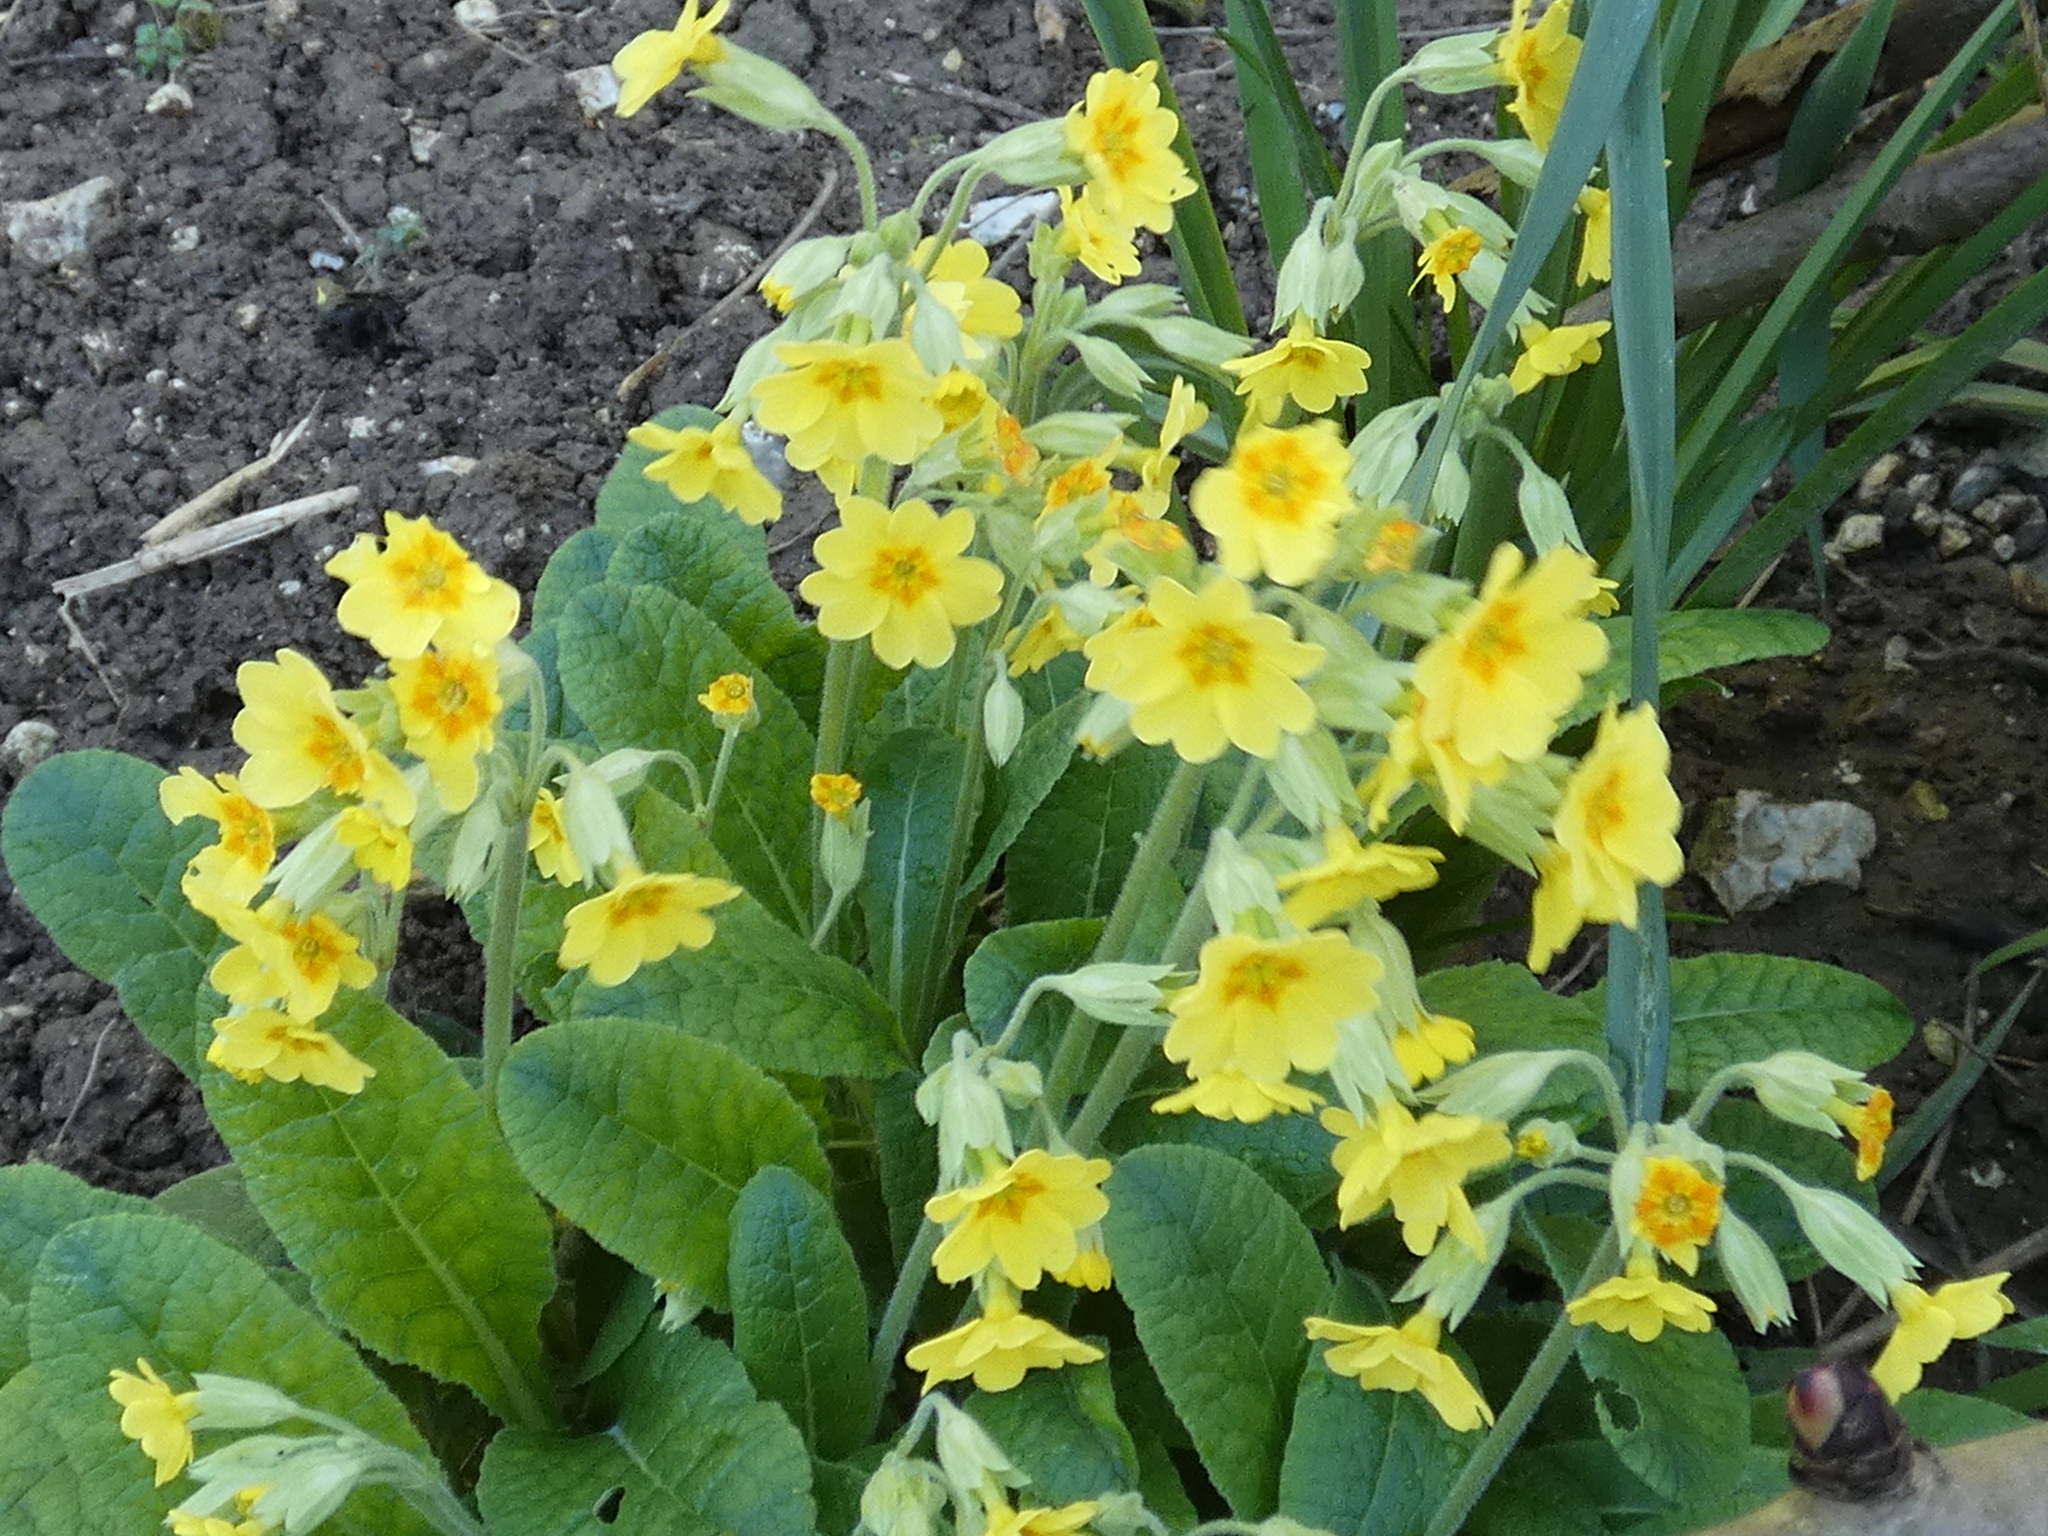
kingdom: Plantae
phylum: Tracheophyta
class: Magnoliopsida
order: Ericales
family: Primulaceae
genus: Primula
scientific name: Primula polyantha
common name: False oxlip
